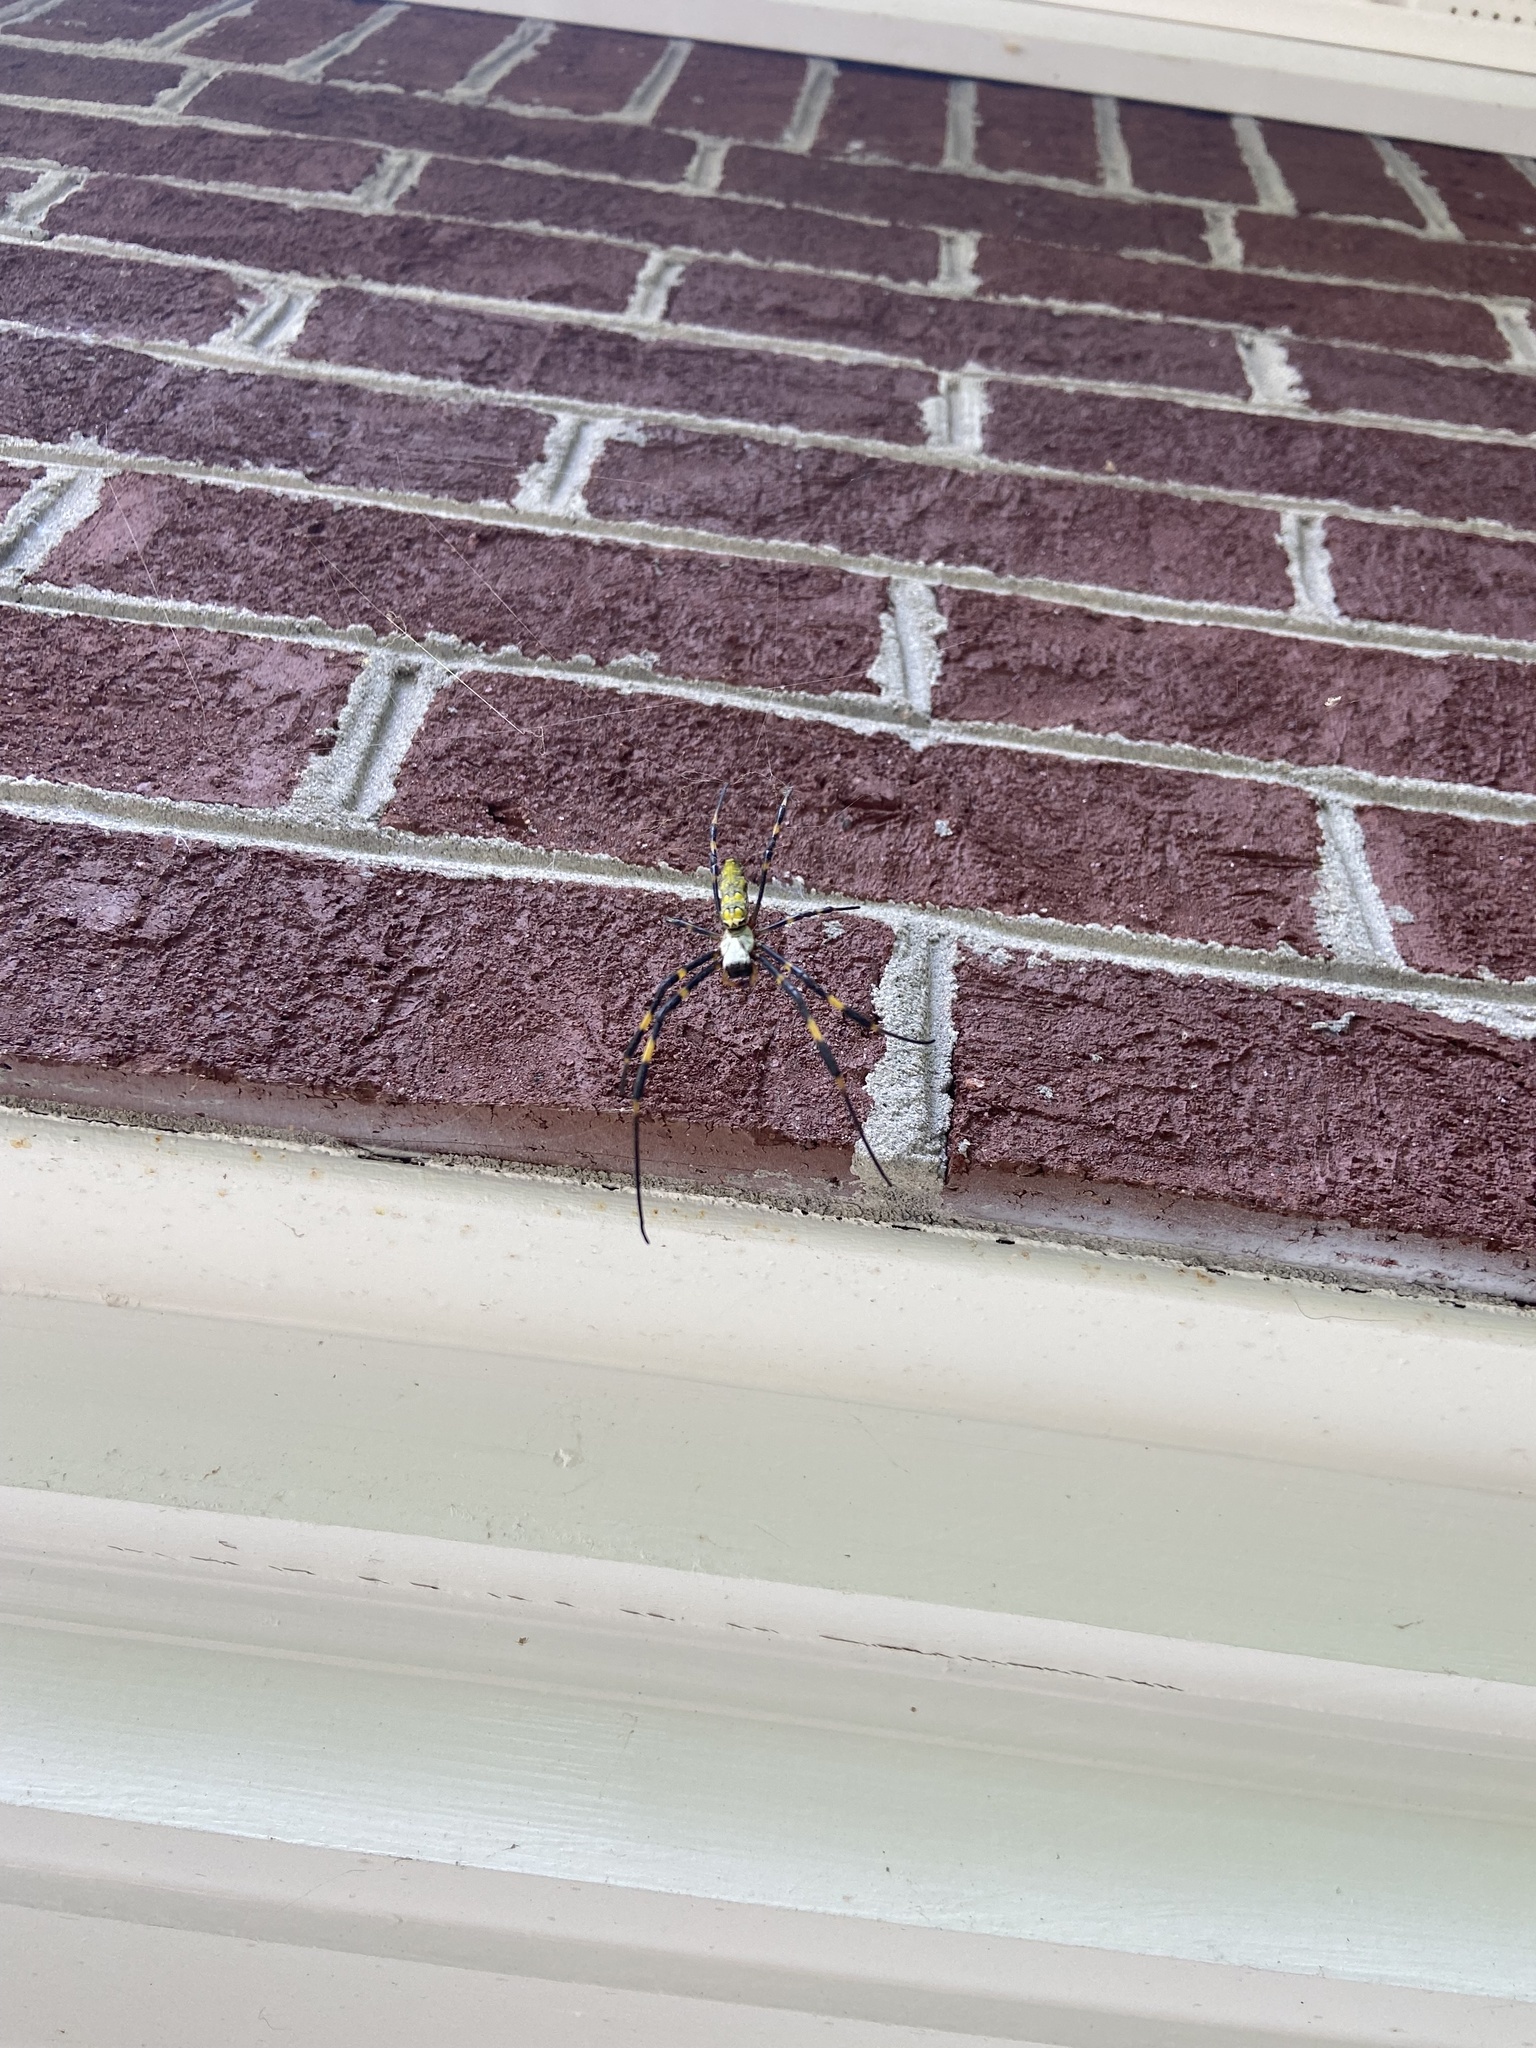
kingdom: Animalia
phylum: Arthropoda
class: Arachnida
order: Araneae
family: Araneidae
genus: Trichonephila
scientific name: Trichonephila clavata
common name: Jorō spider
